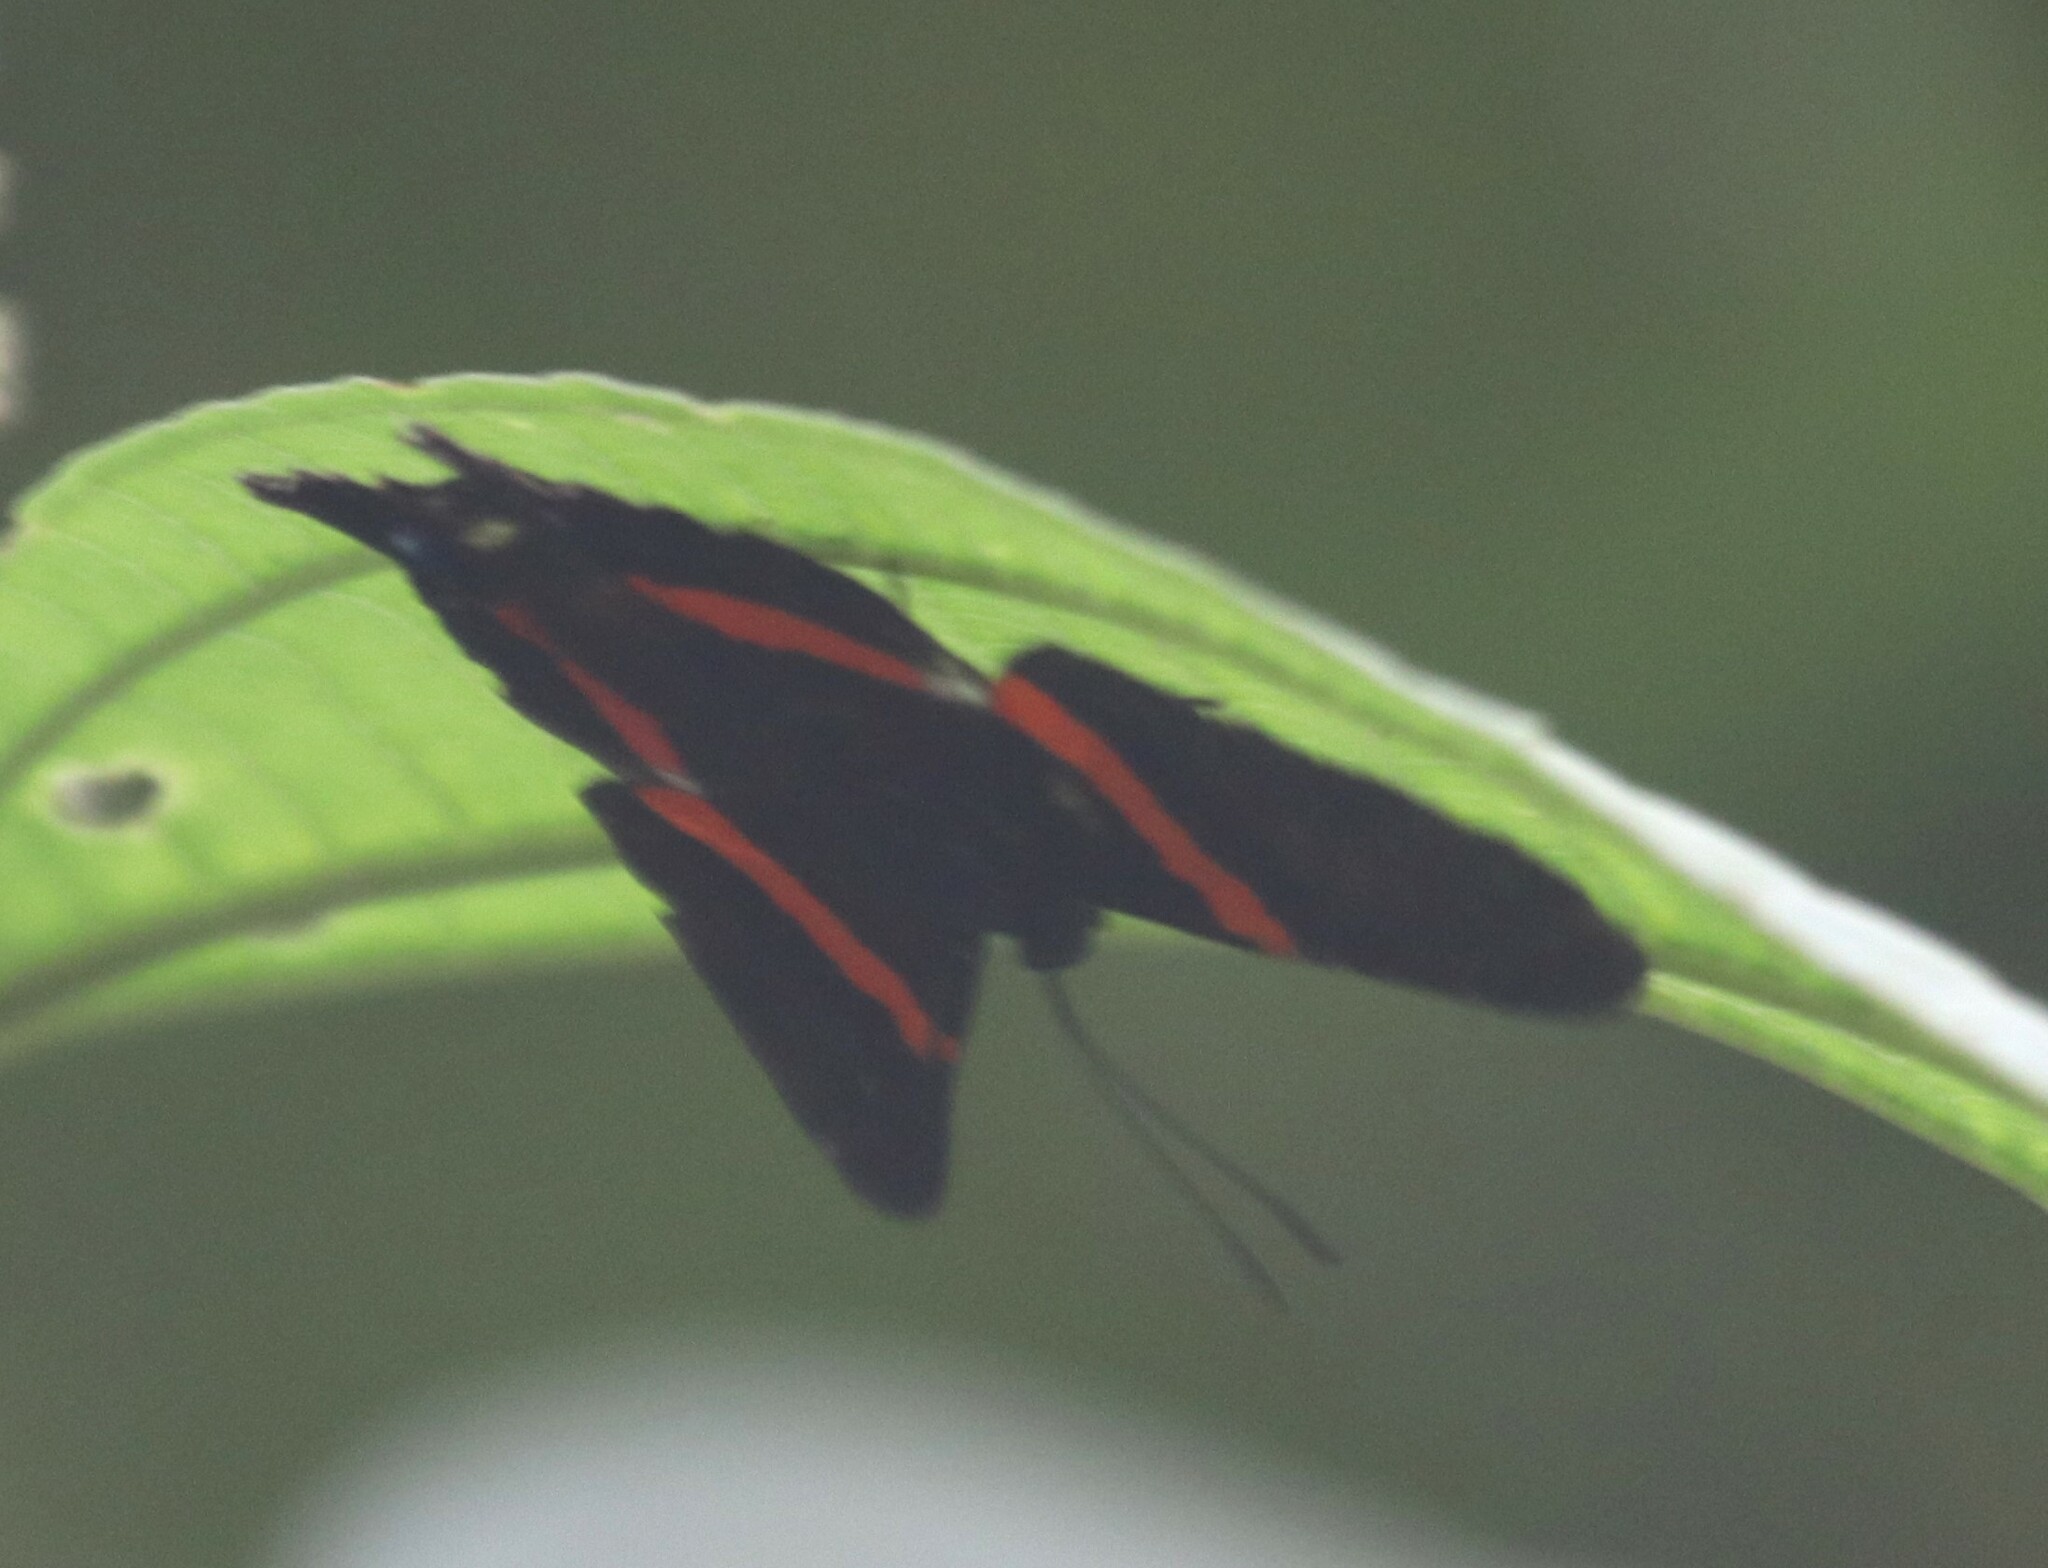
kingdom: Animalia
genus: Ancyluris
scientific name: Ancyluris inca
